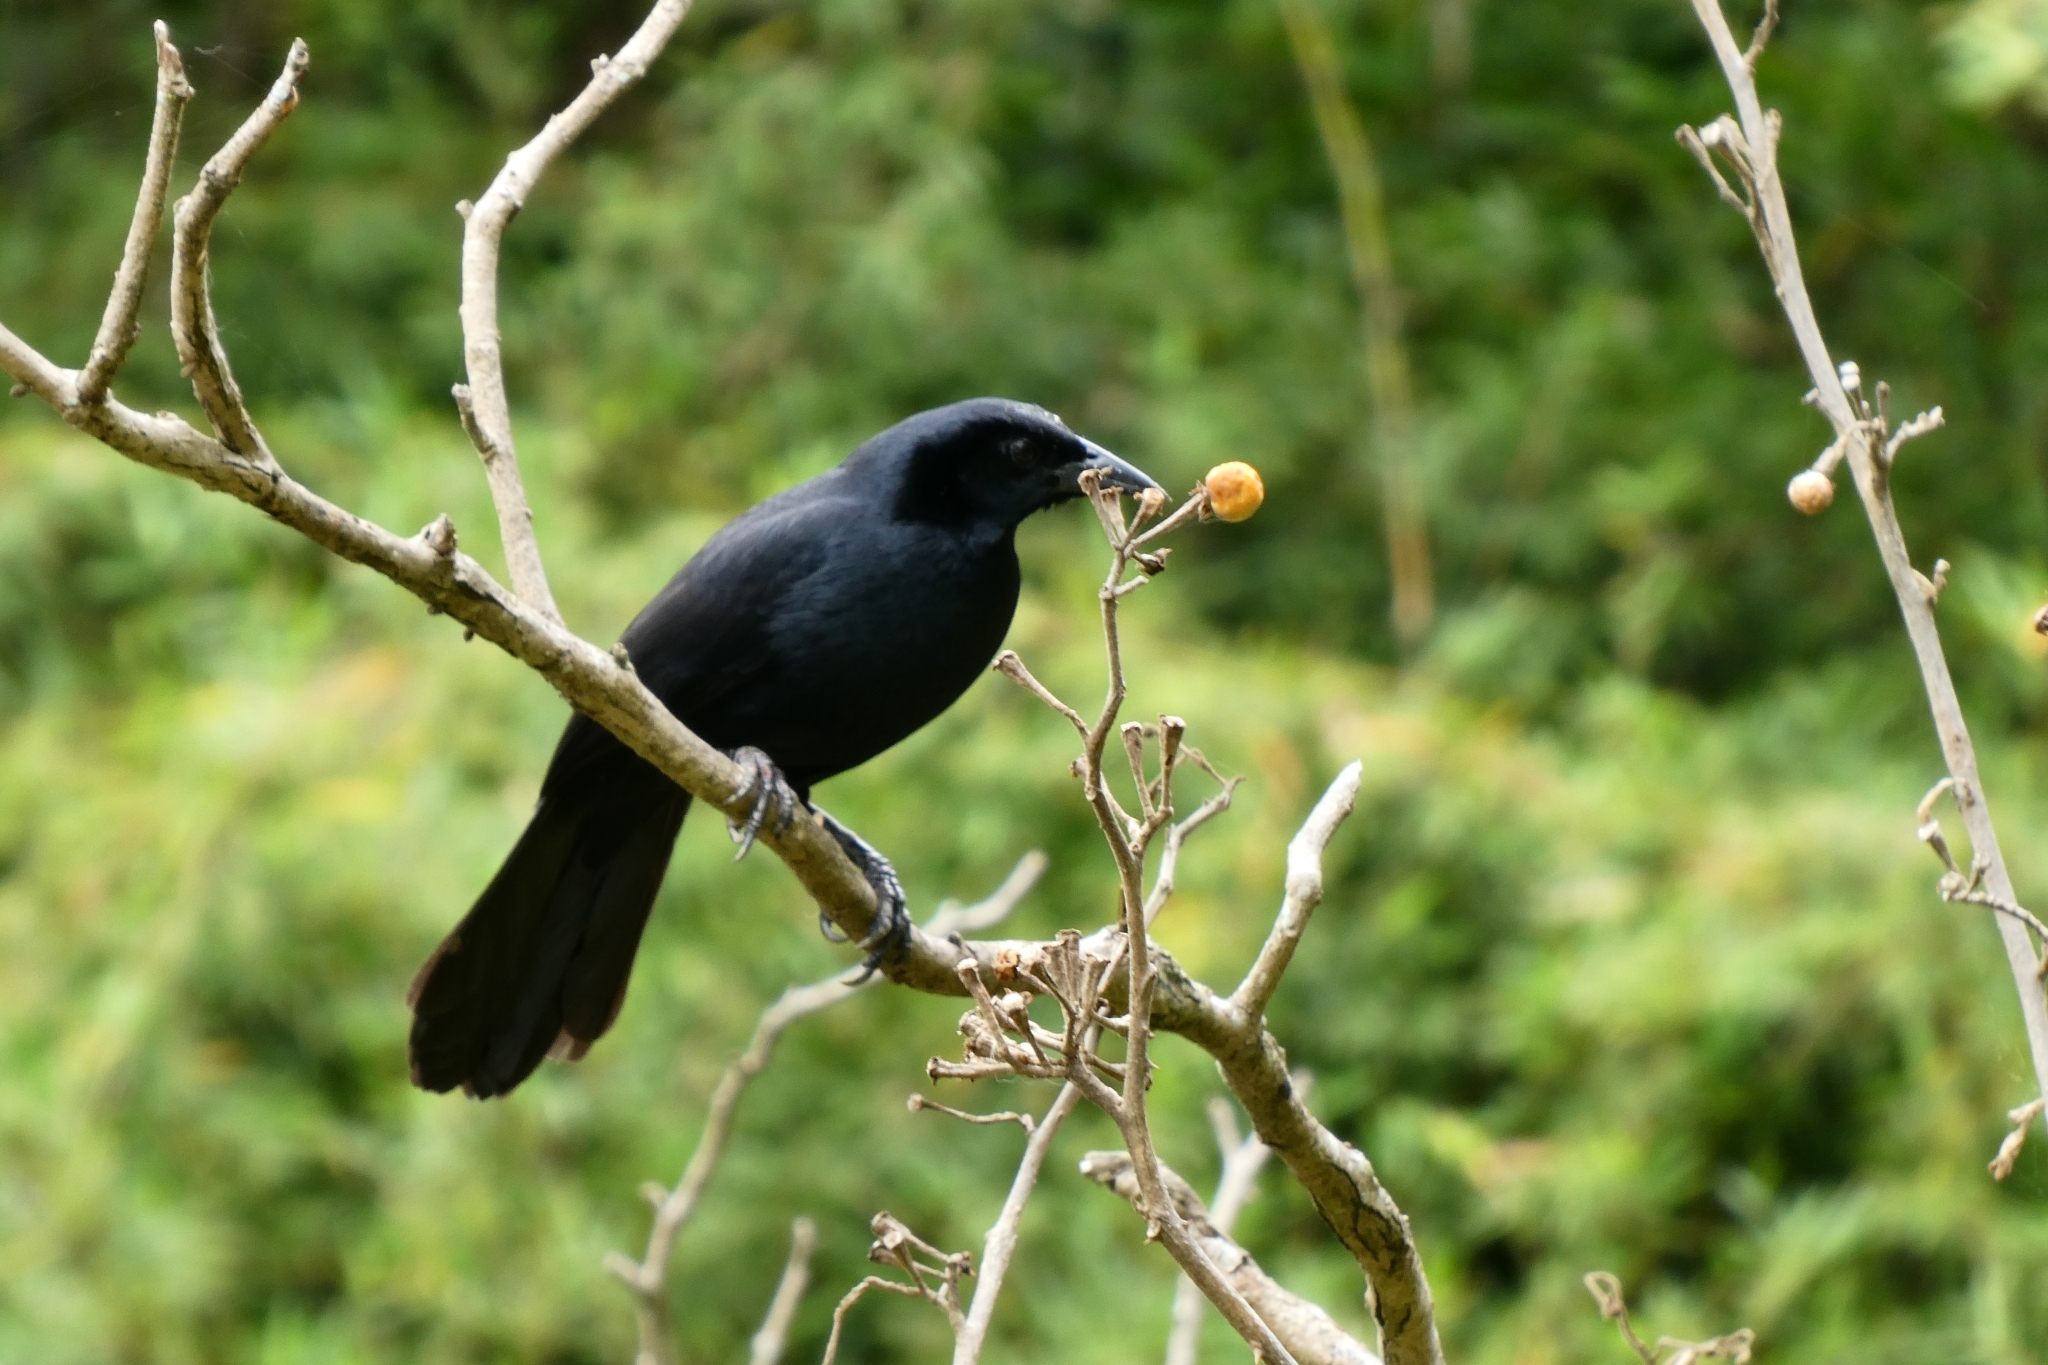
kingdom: Animalia
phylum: Chordata
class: Aves
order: Passeriformes
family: Icteridae
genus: Dives
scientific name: Dives dives
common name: Melodious blackbird
